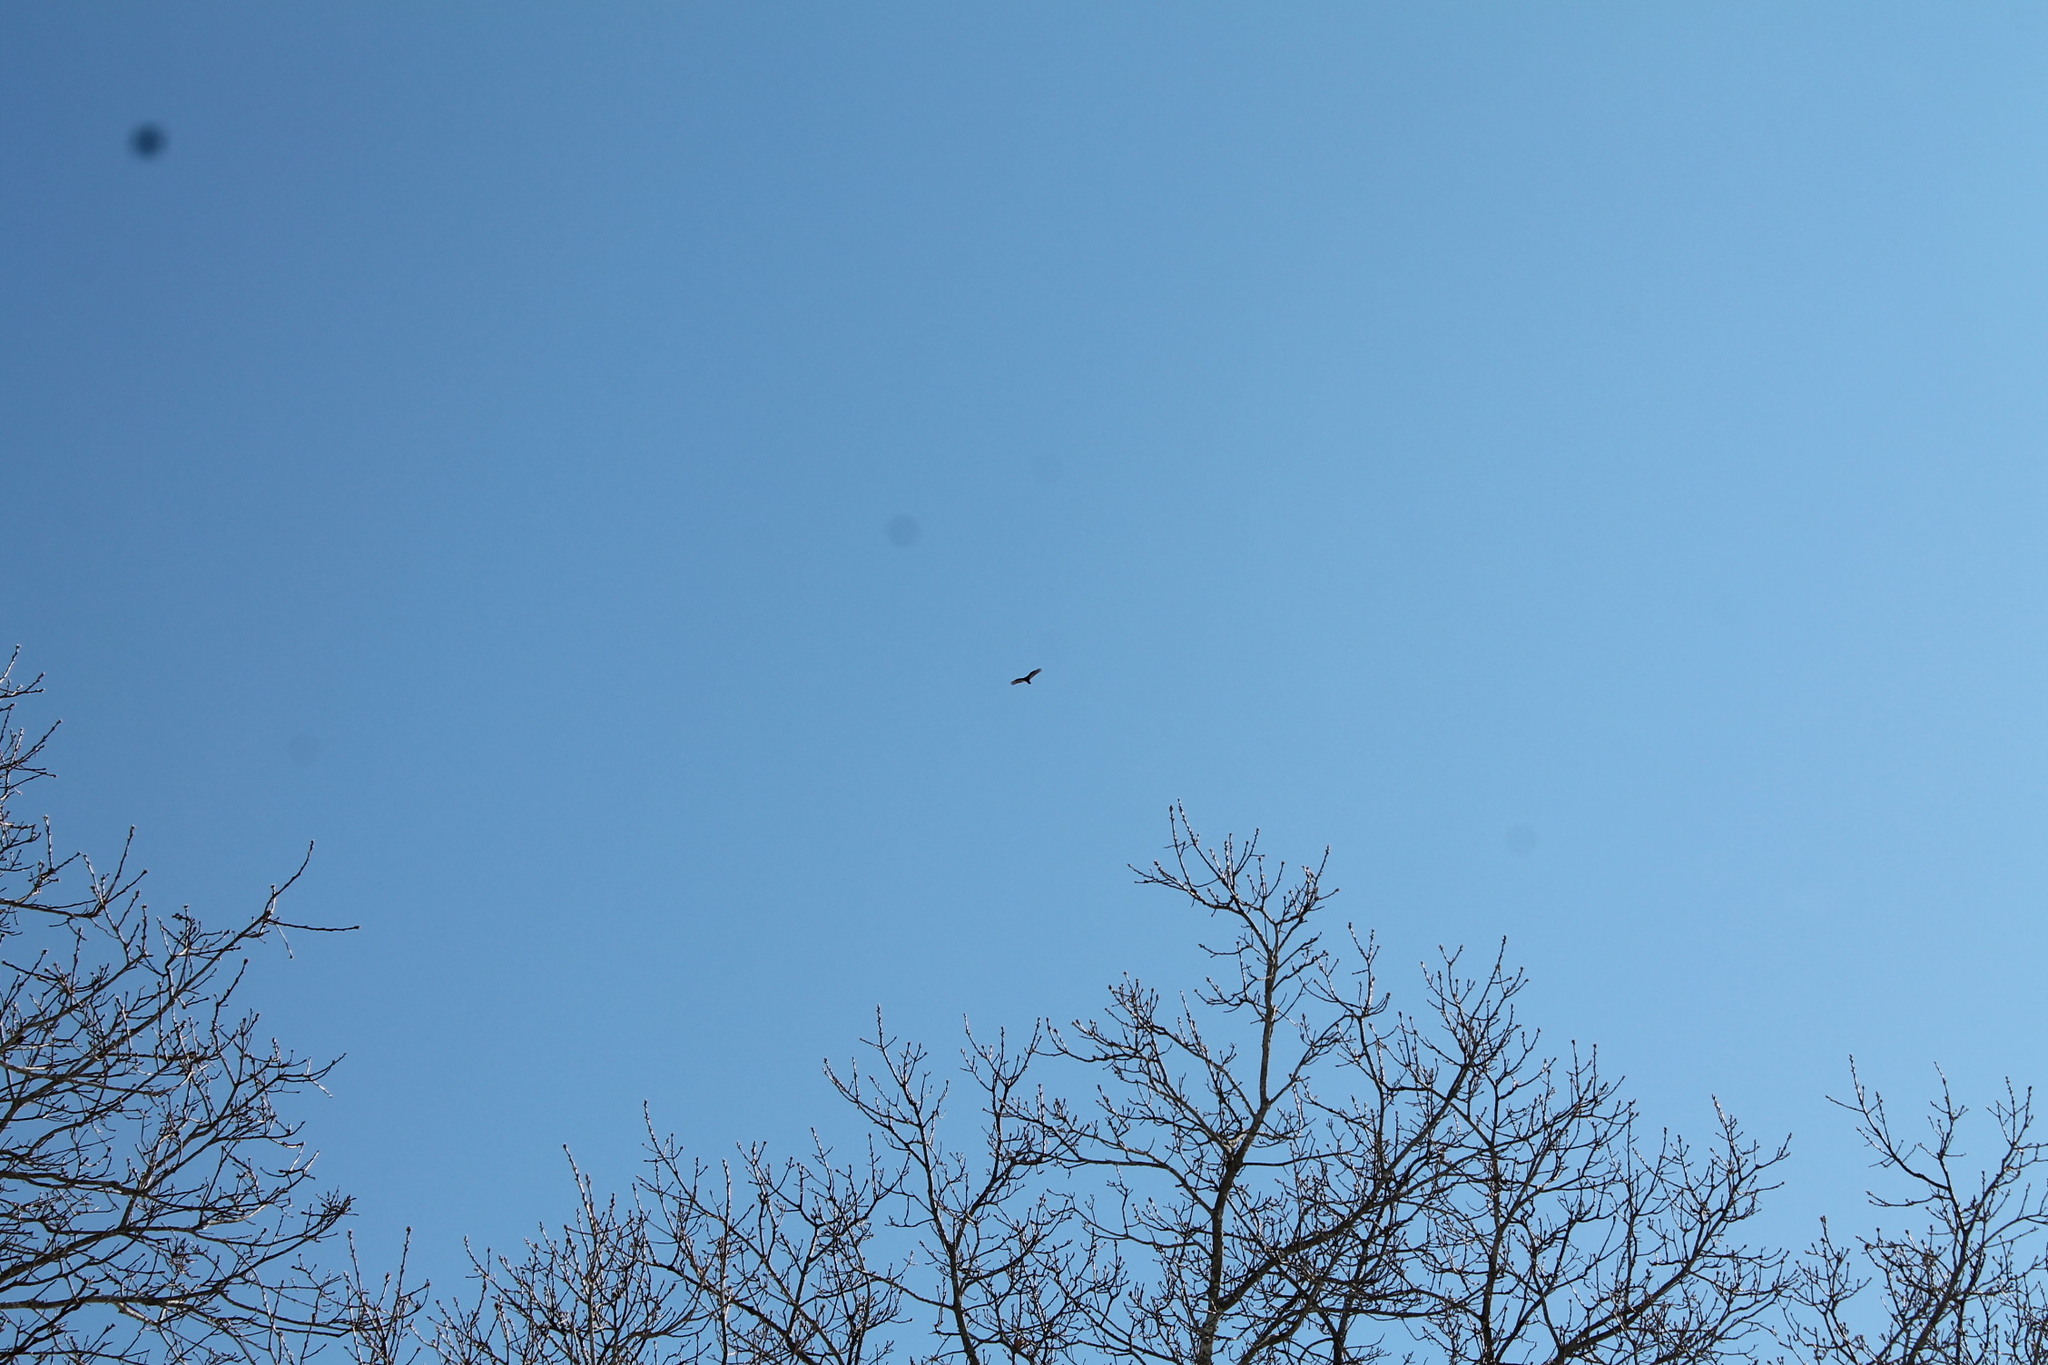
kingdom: Animalia
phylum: Chordata
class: Aves
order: Accipitriformes
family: Cathartidae
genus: Cathartes
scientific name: Cathartes aura
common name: Turkey vulture
